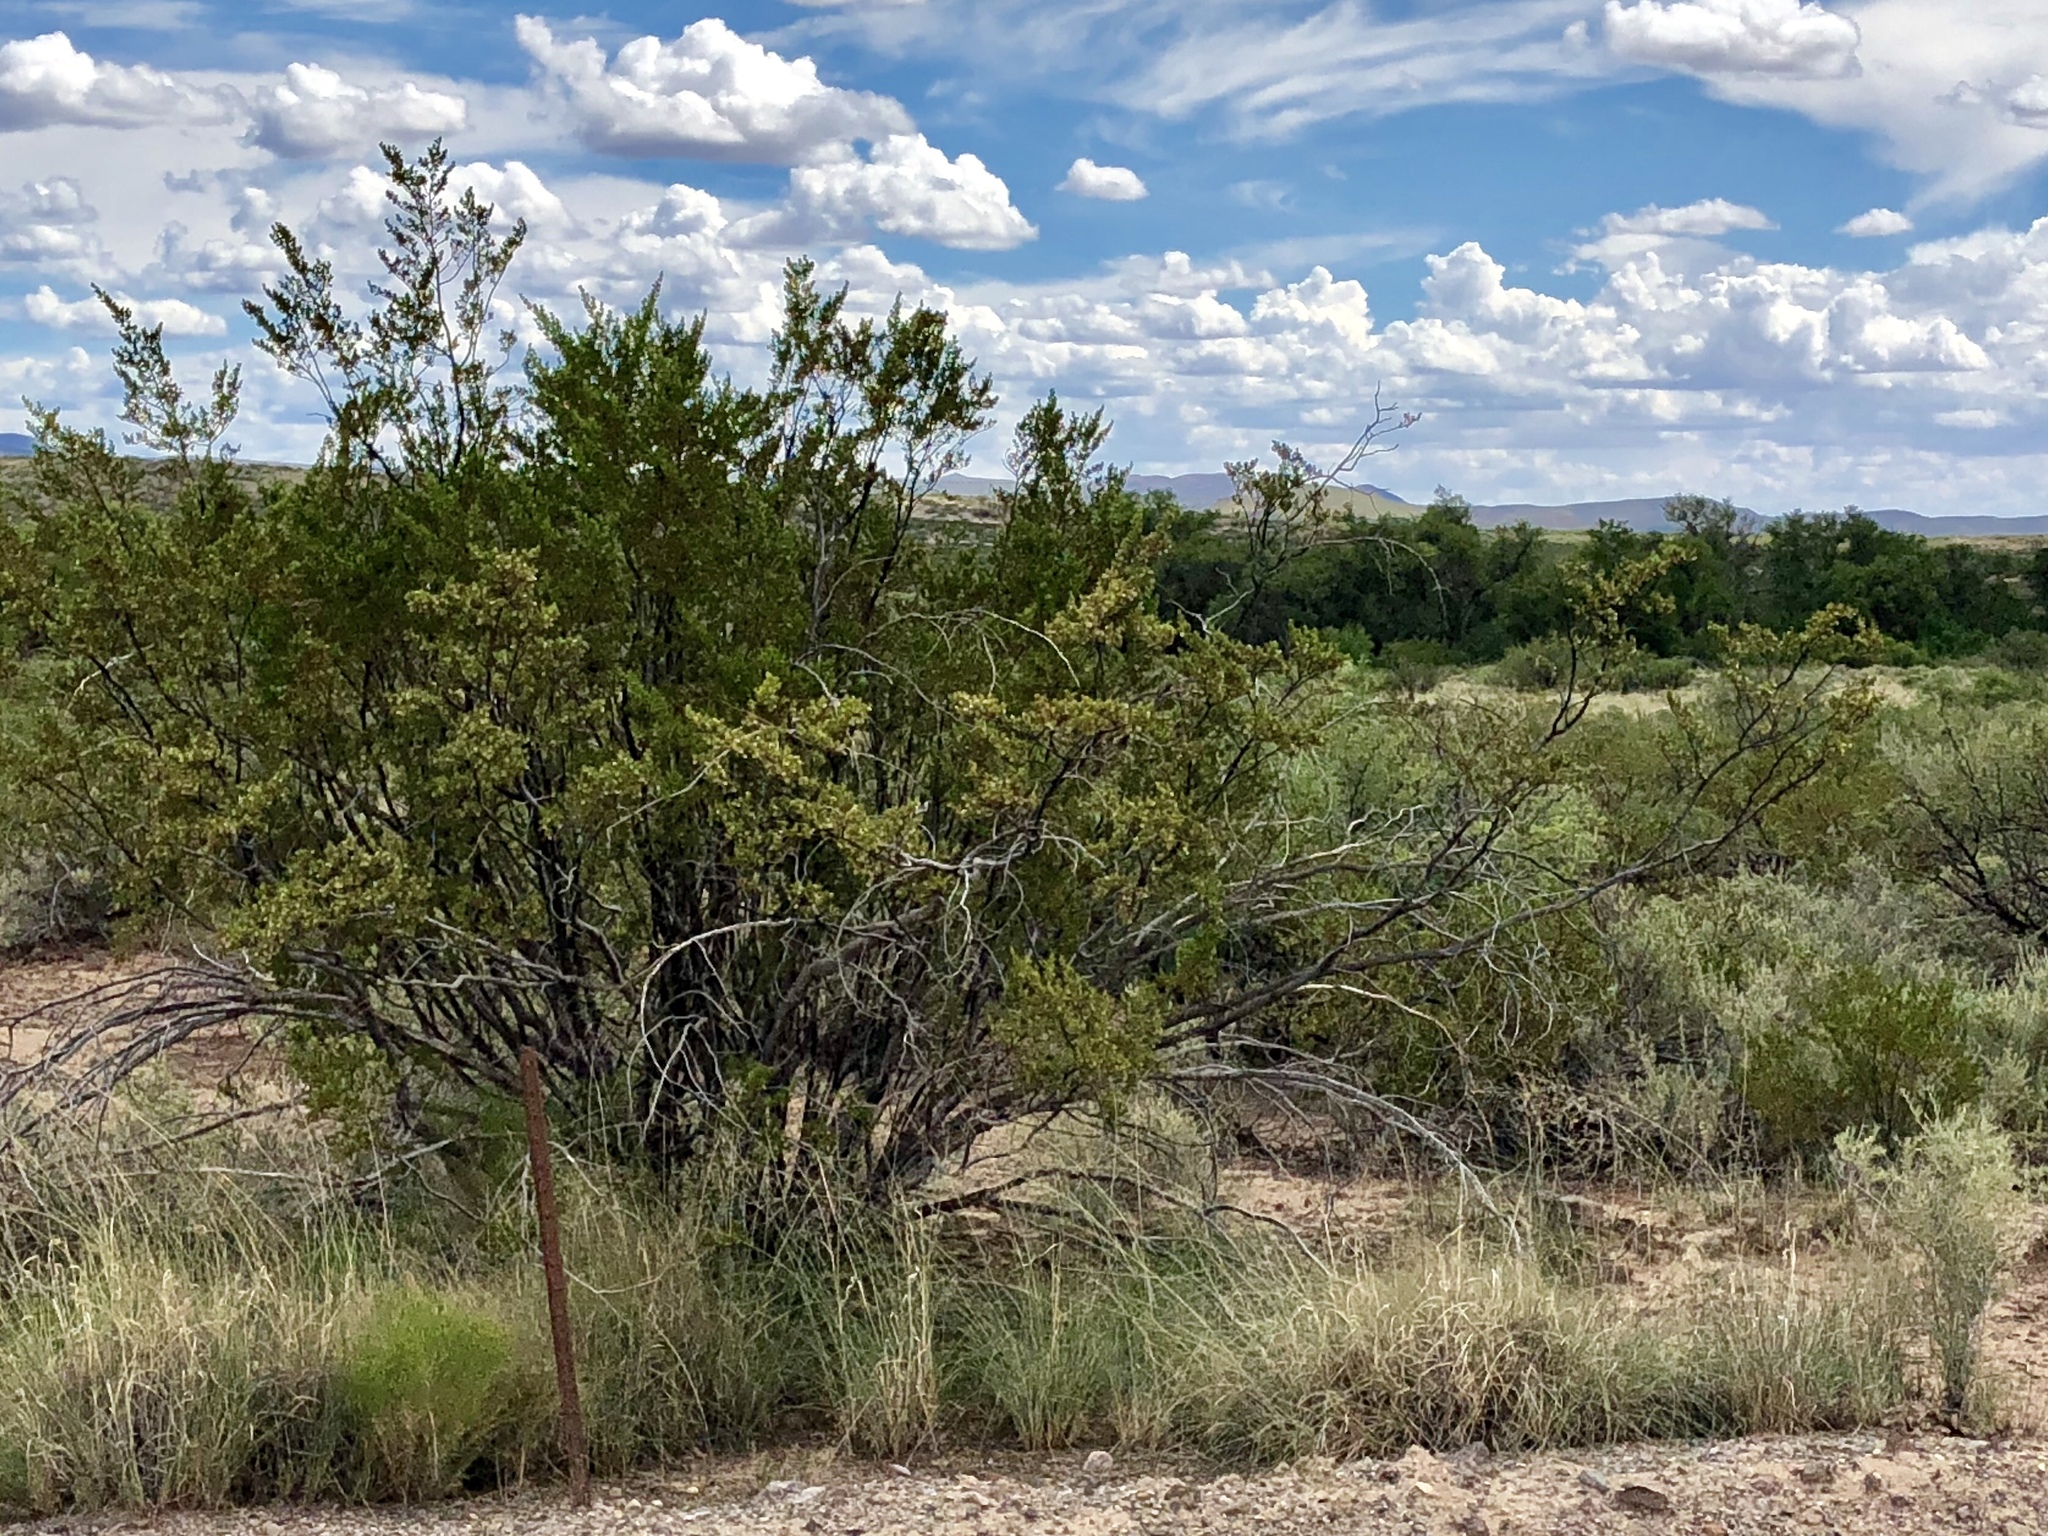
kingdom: Plantae
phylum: Tracheophyta
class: Magnoliopsida
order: Zygophyllales
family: Zygophyllaceae
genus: Larrea
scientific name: Larrea tridentata
